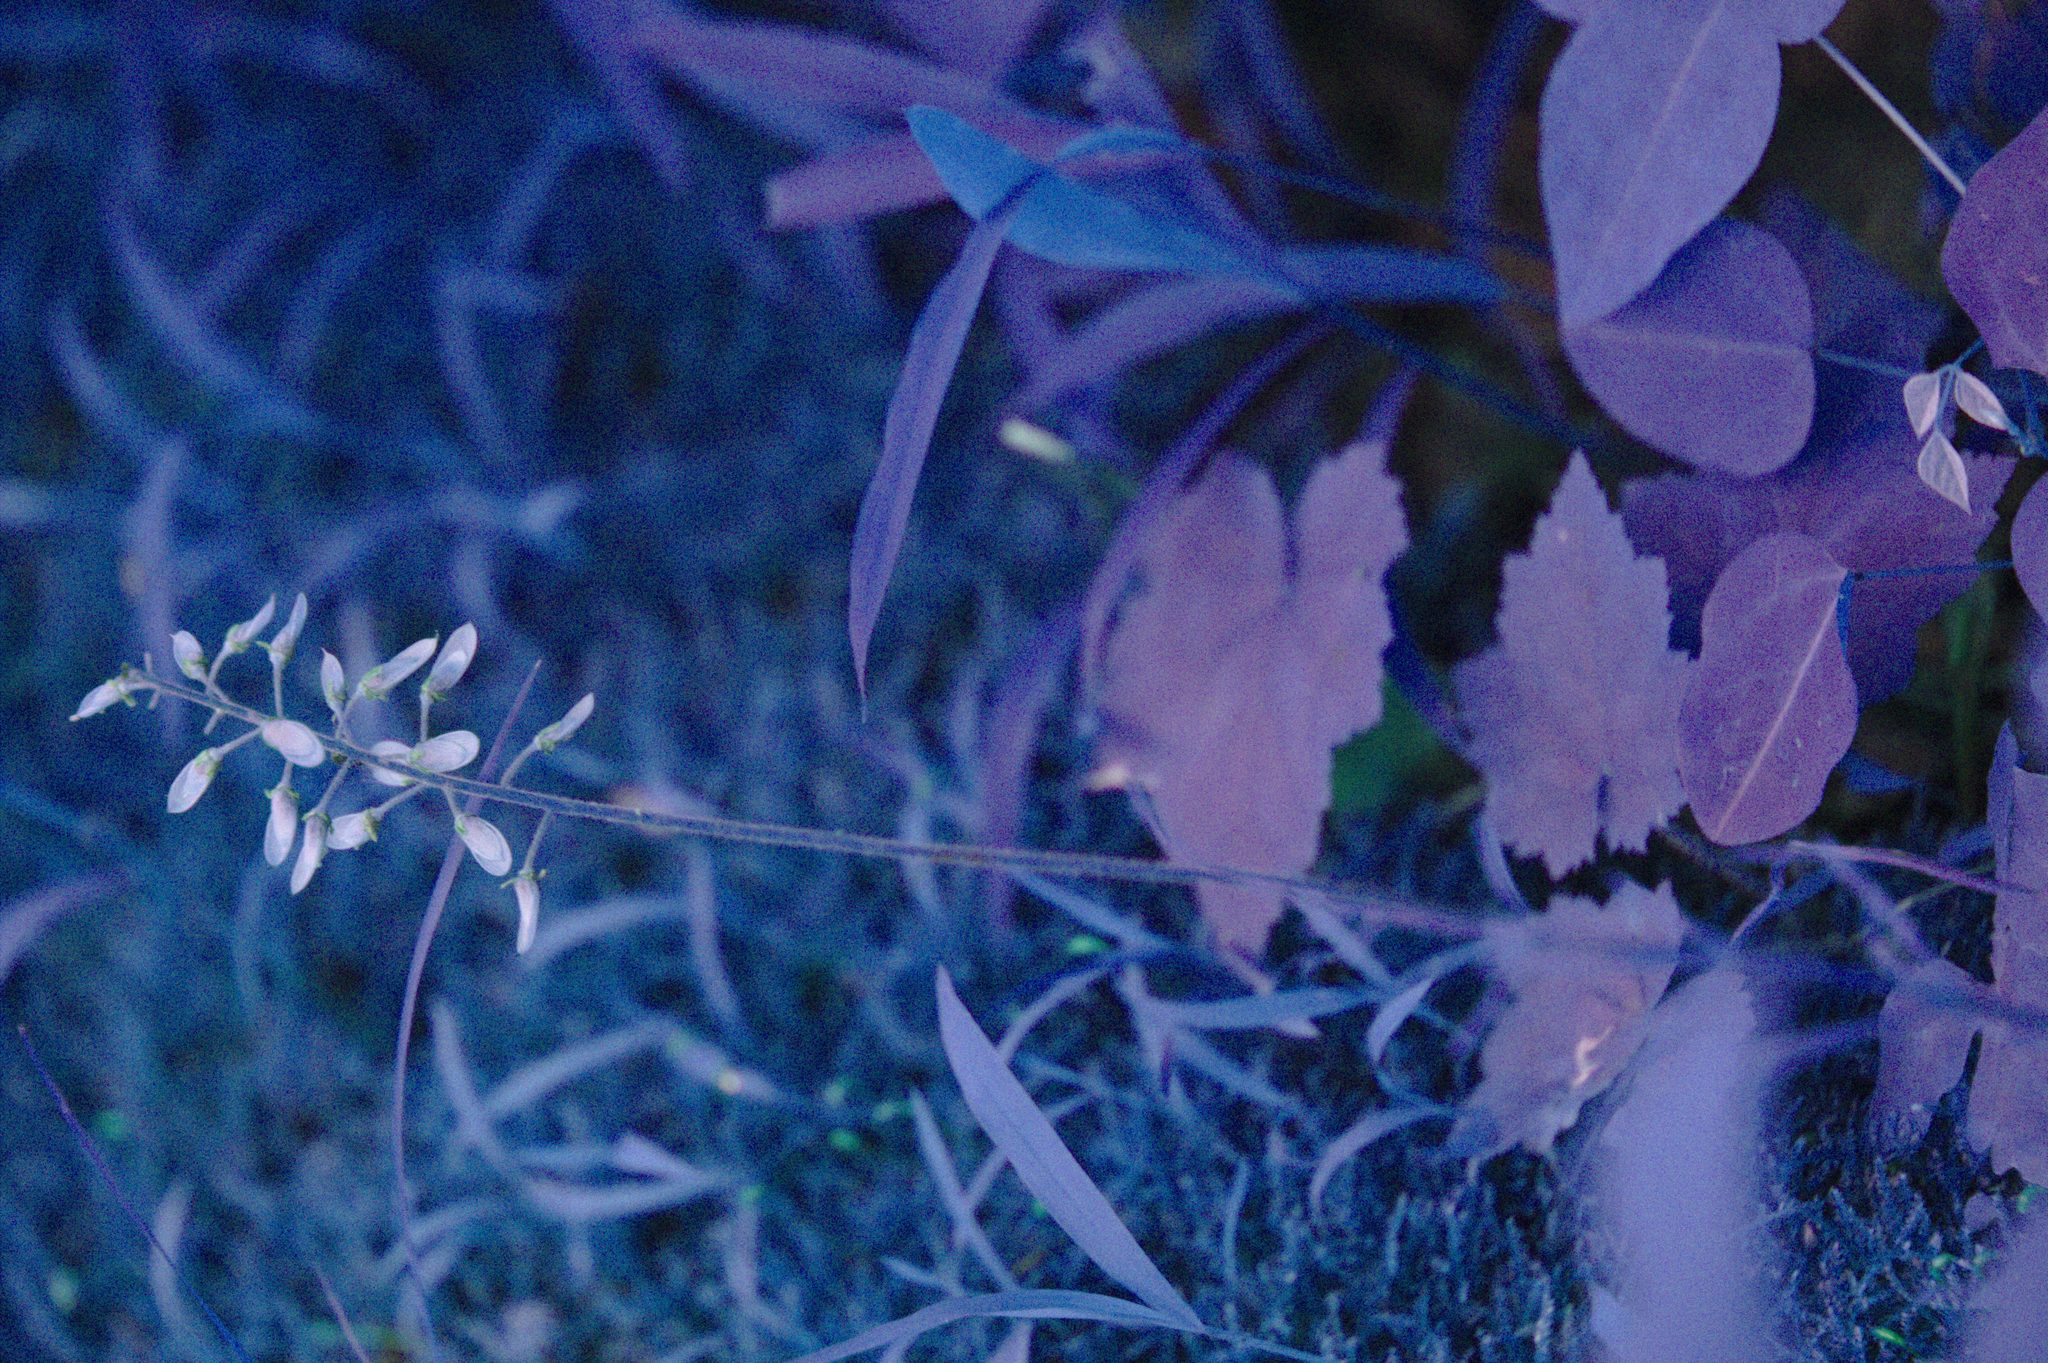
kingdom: Plantae
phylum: Tracheophyta
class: Magnoliopsida
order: Saxifragales
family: Saxifragaceae
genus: Tiarella
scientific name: Tiarella stolonifera
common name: Stoloniferous foamflower
